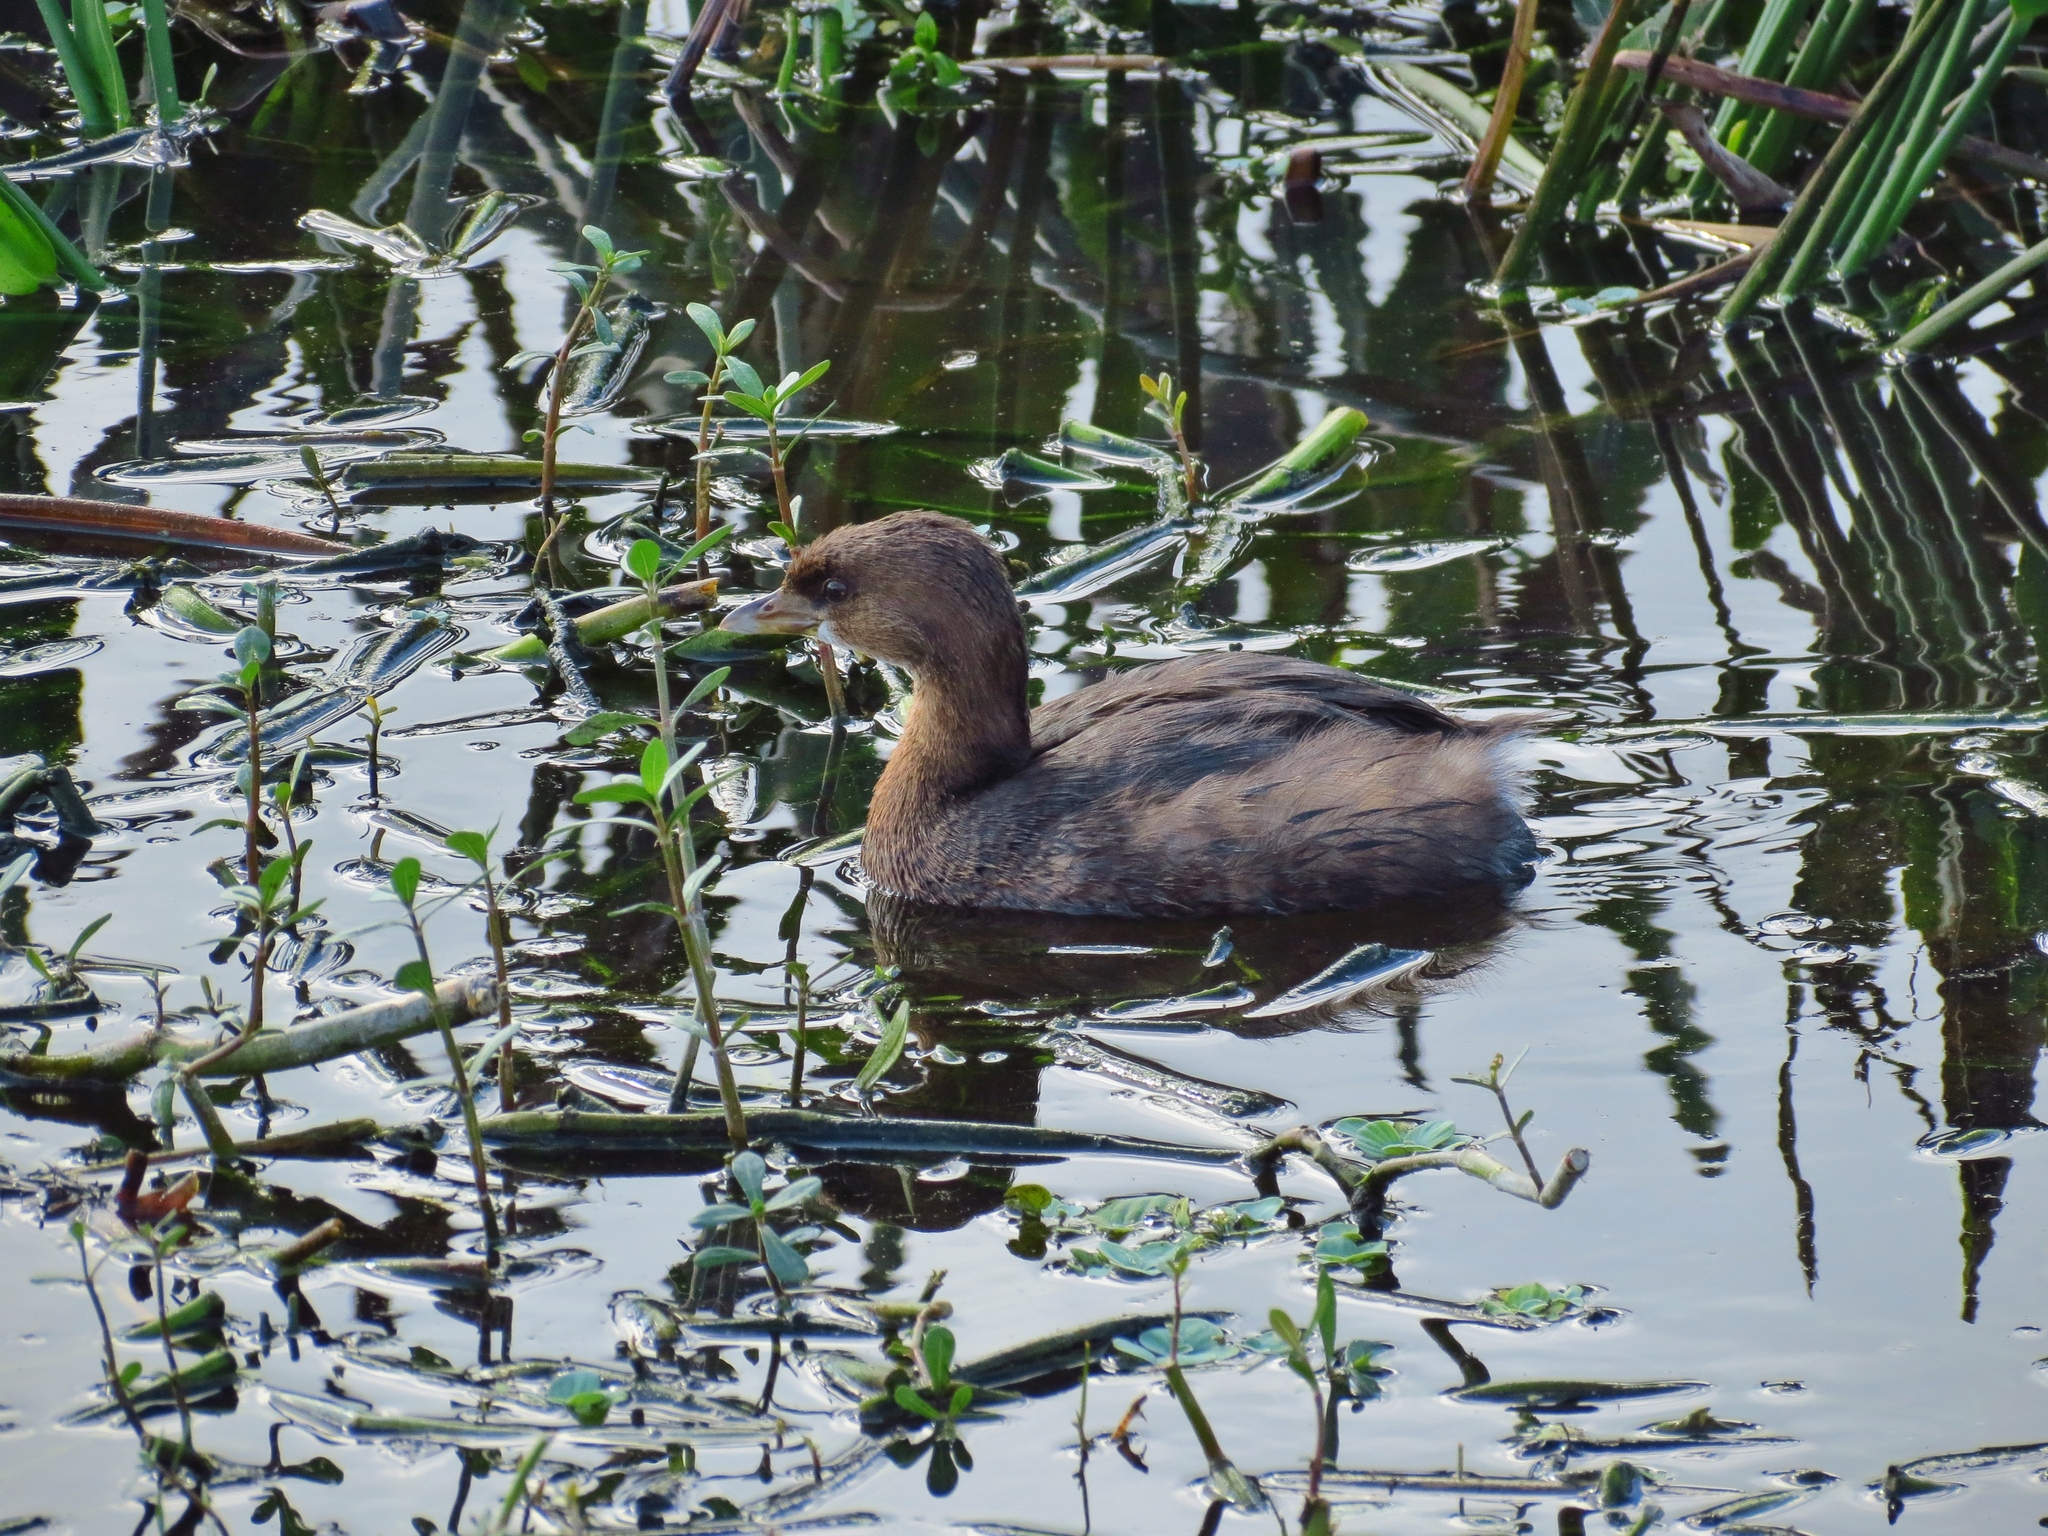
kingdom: Animalia
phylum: Chordata
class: Aves
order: Podicipediformes
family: Podicipedidae
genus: Podilymbus
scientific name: Podilymbus podiceps
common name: Pied-billed grebe
